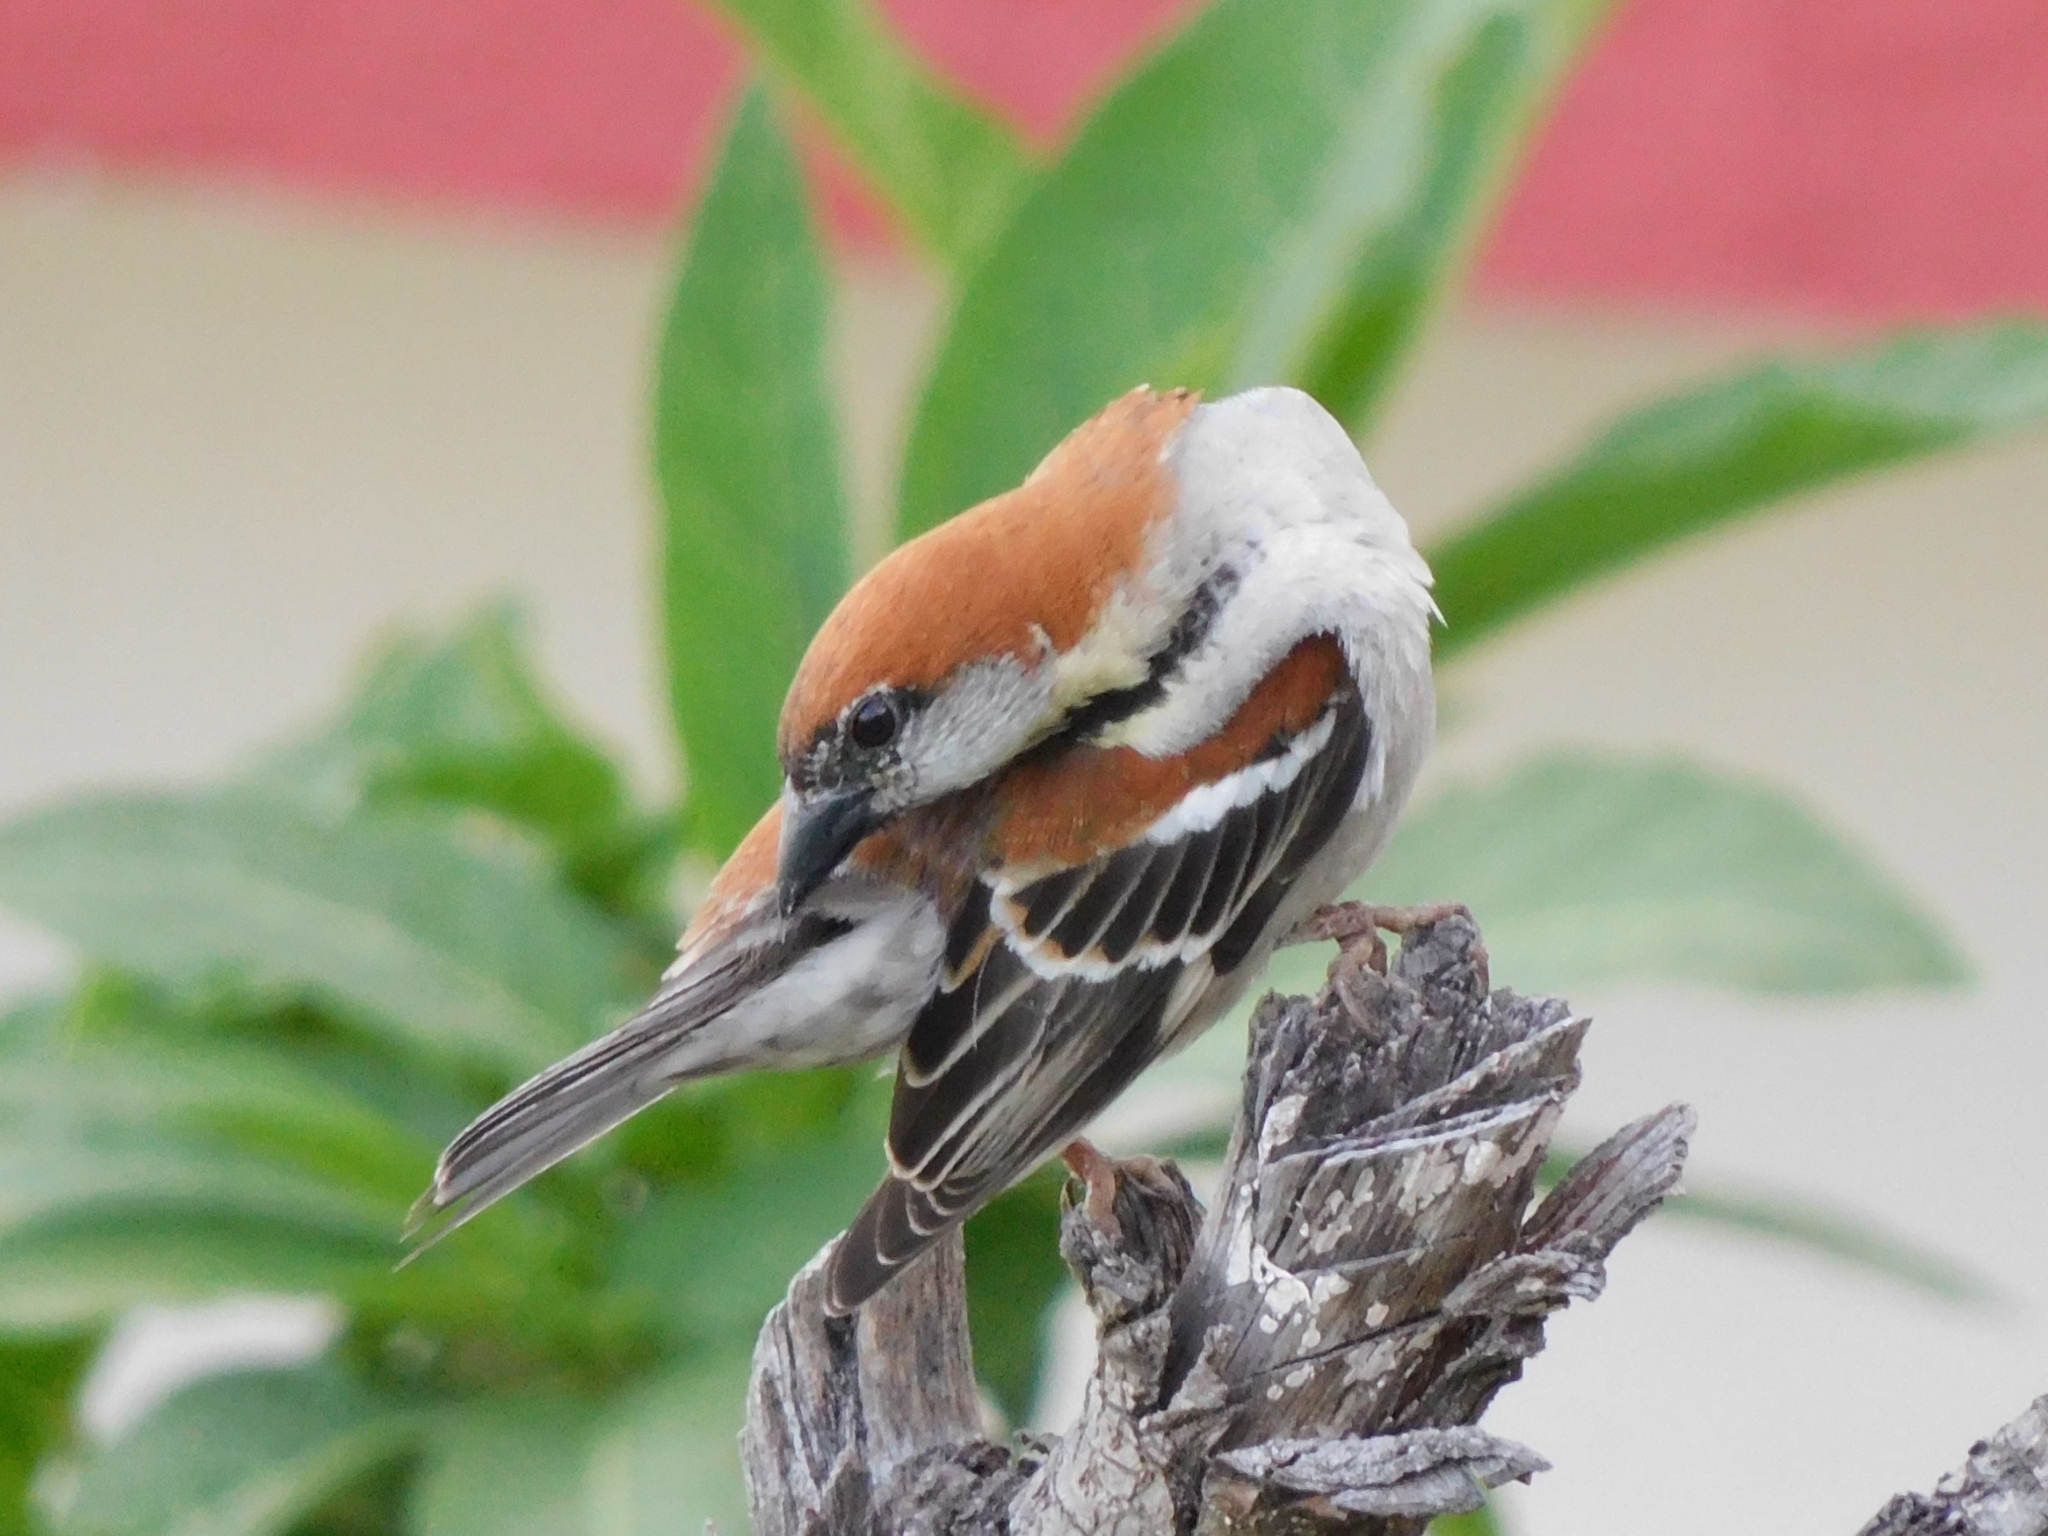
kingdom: Animalia
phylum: Chordata
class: Aves
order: Passeriformes
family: Passeridae
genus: Passer
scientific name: Passer cinnamomeus
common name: Russet sparrow
